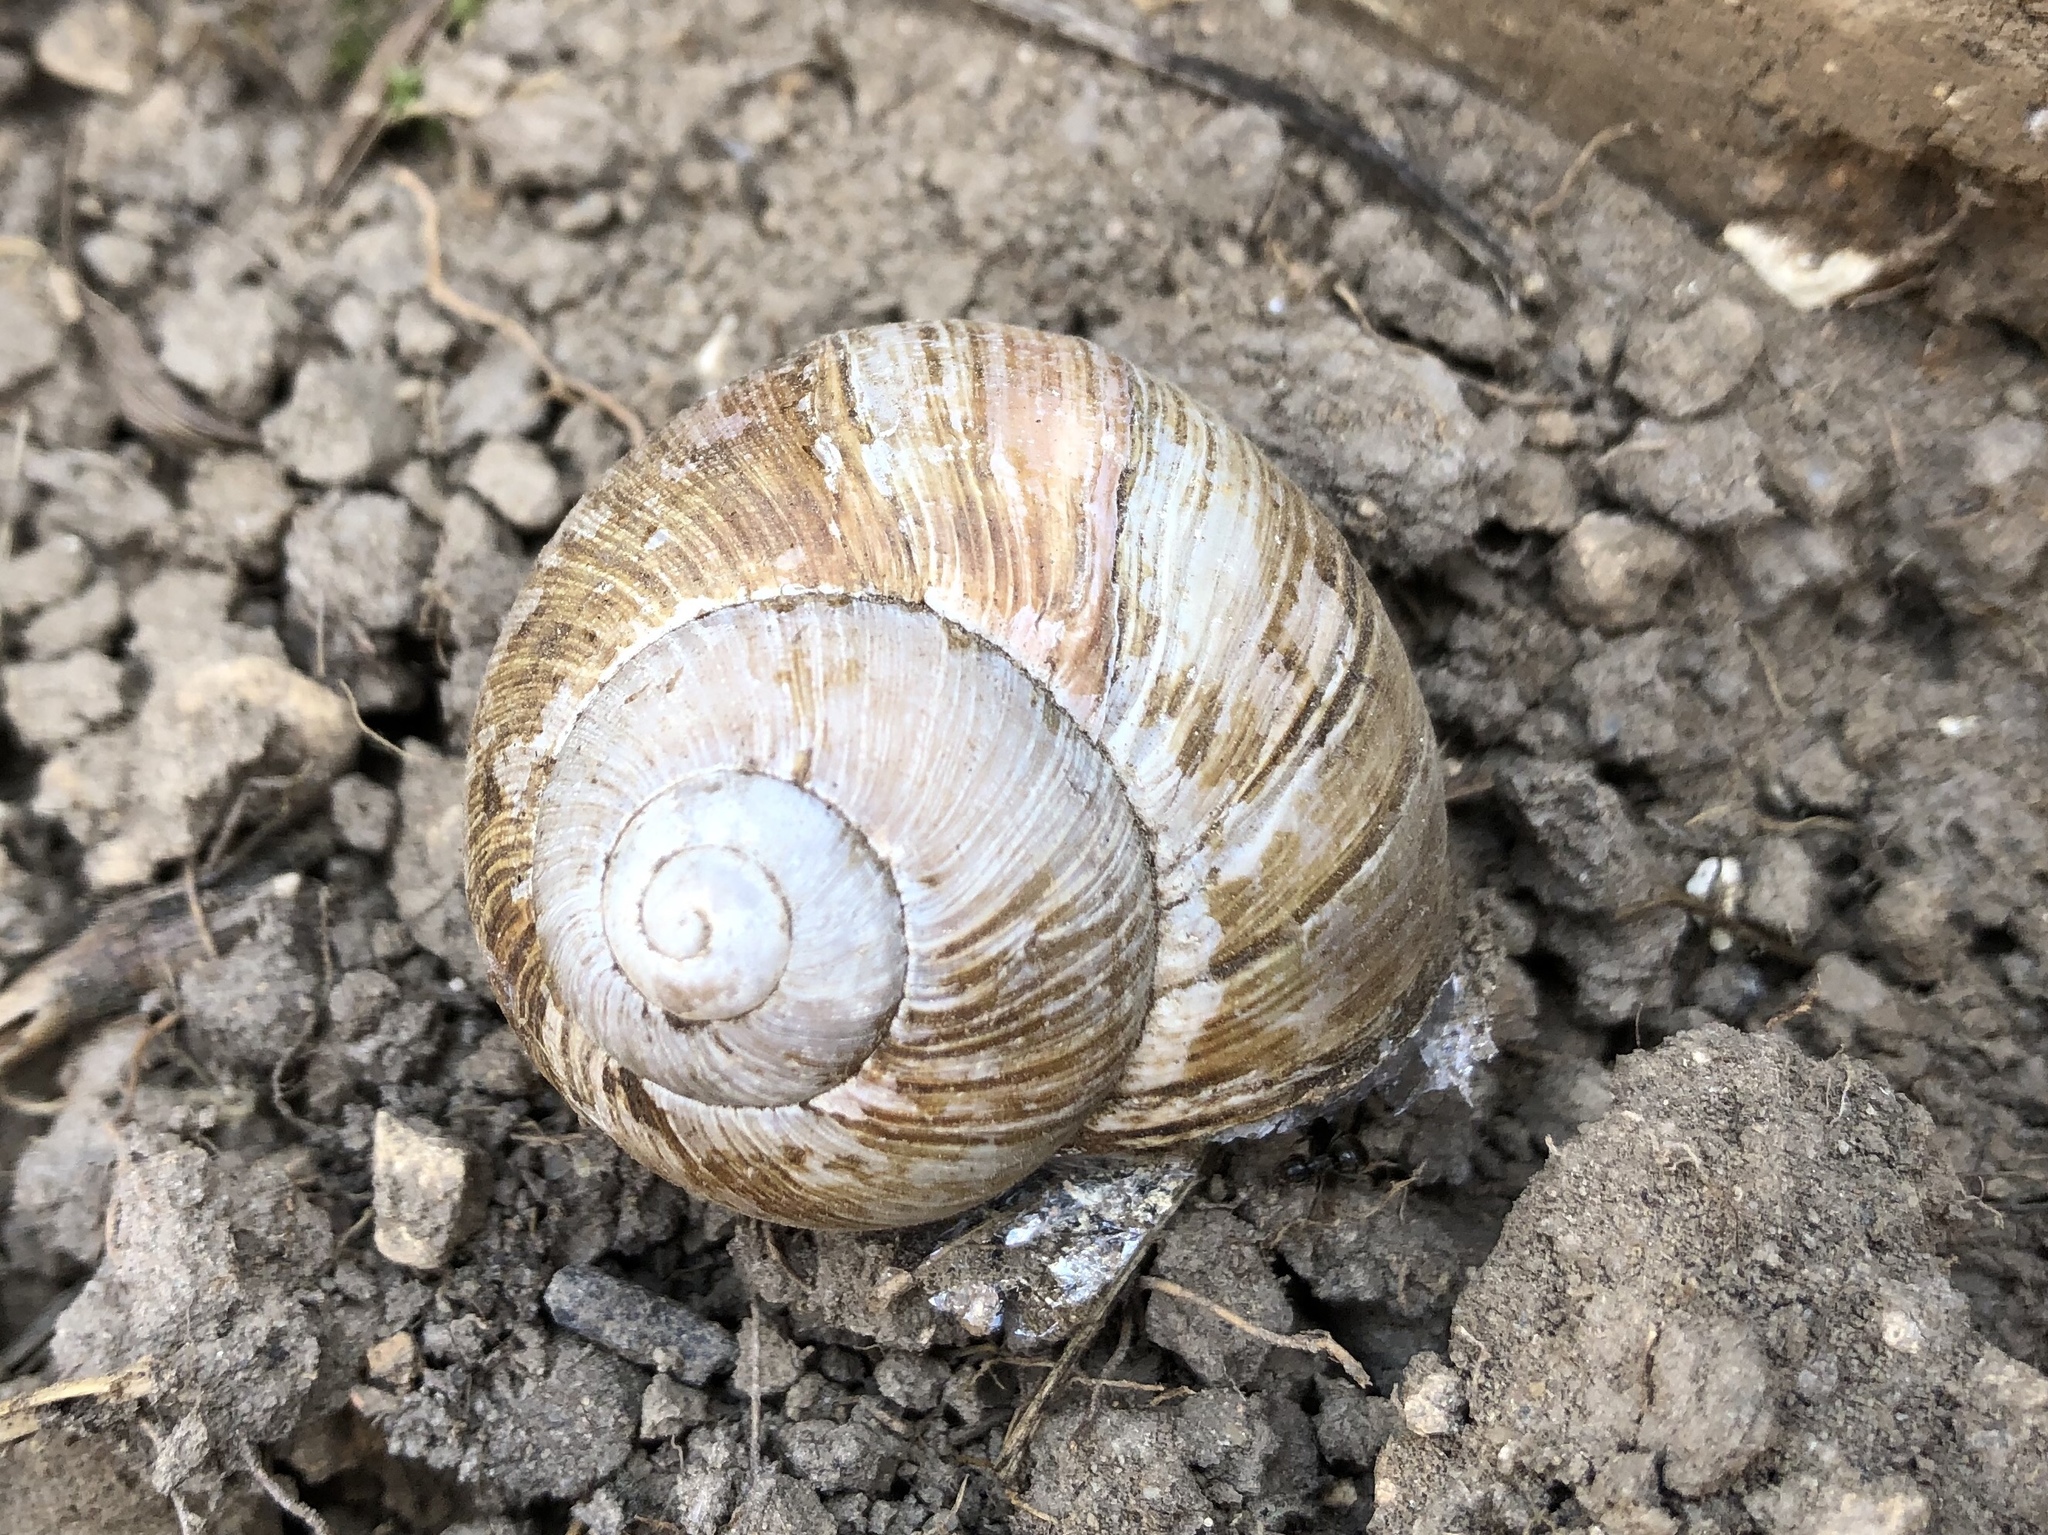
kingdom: Animalia
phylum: Mollusca
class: Gastropoda
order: Stylommatophora
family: Helicidae
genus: Helix
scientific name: Helix pomatia
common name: Roman snail
